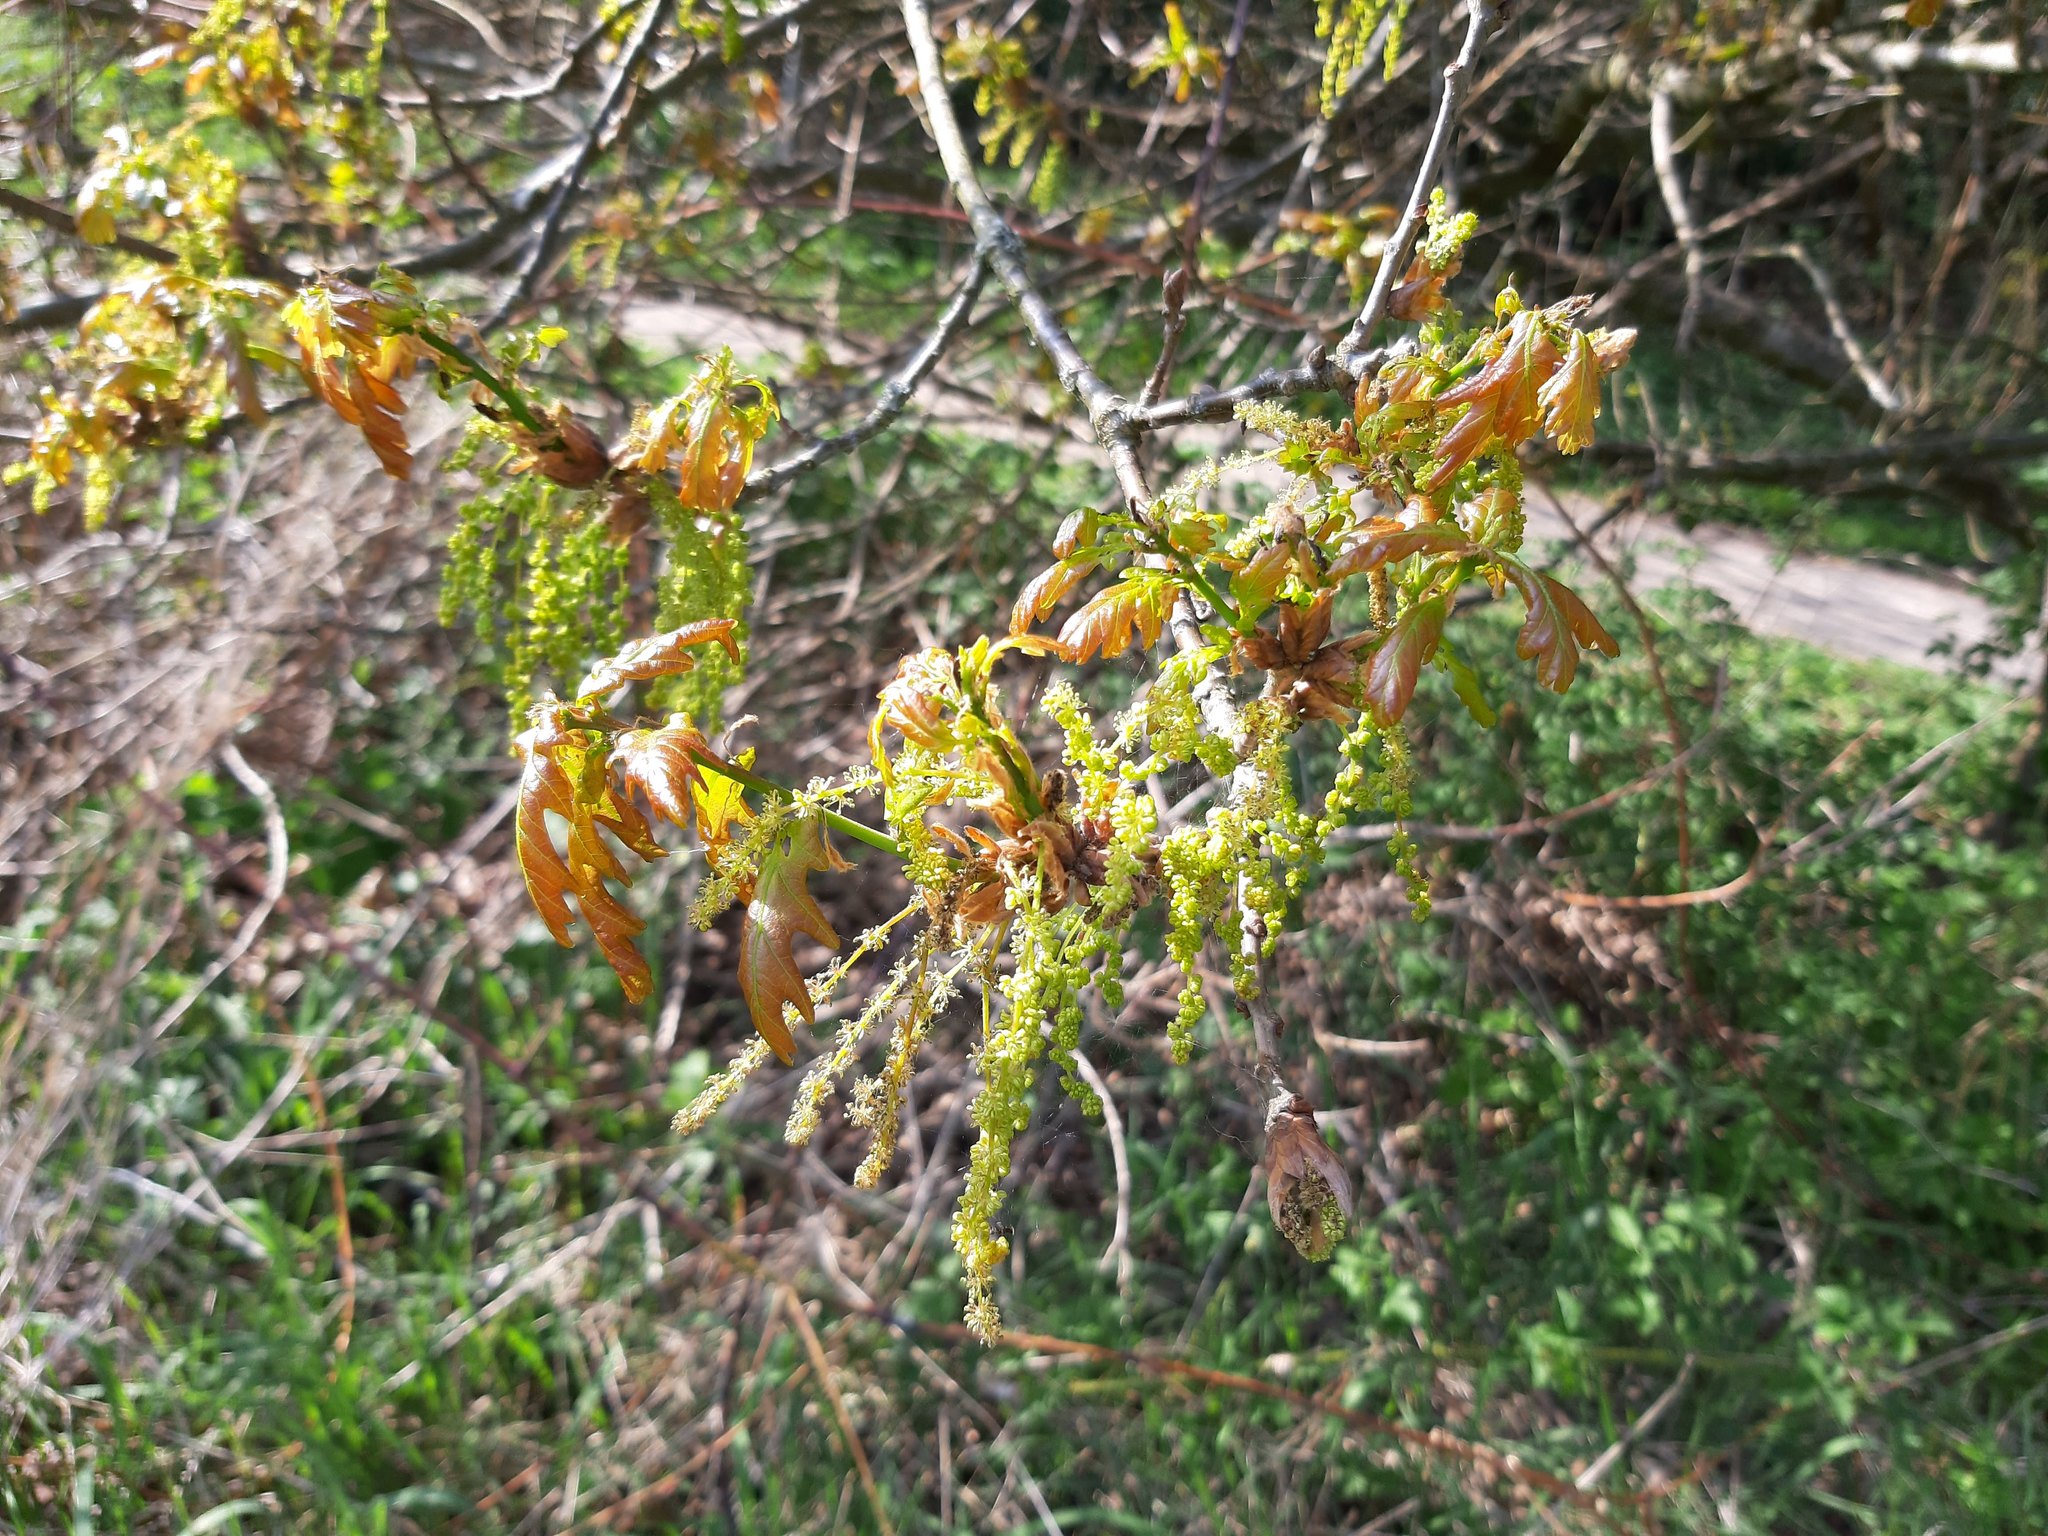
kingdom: Plantae
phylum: Tracheophyta
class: Magnoliopsida
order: Fagales
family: Fagaceae
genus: Quercus
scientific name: Quercus robur
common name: Pedunculate oak
